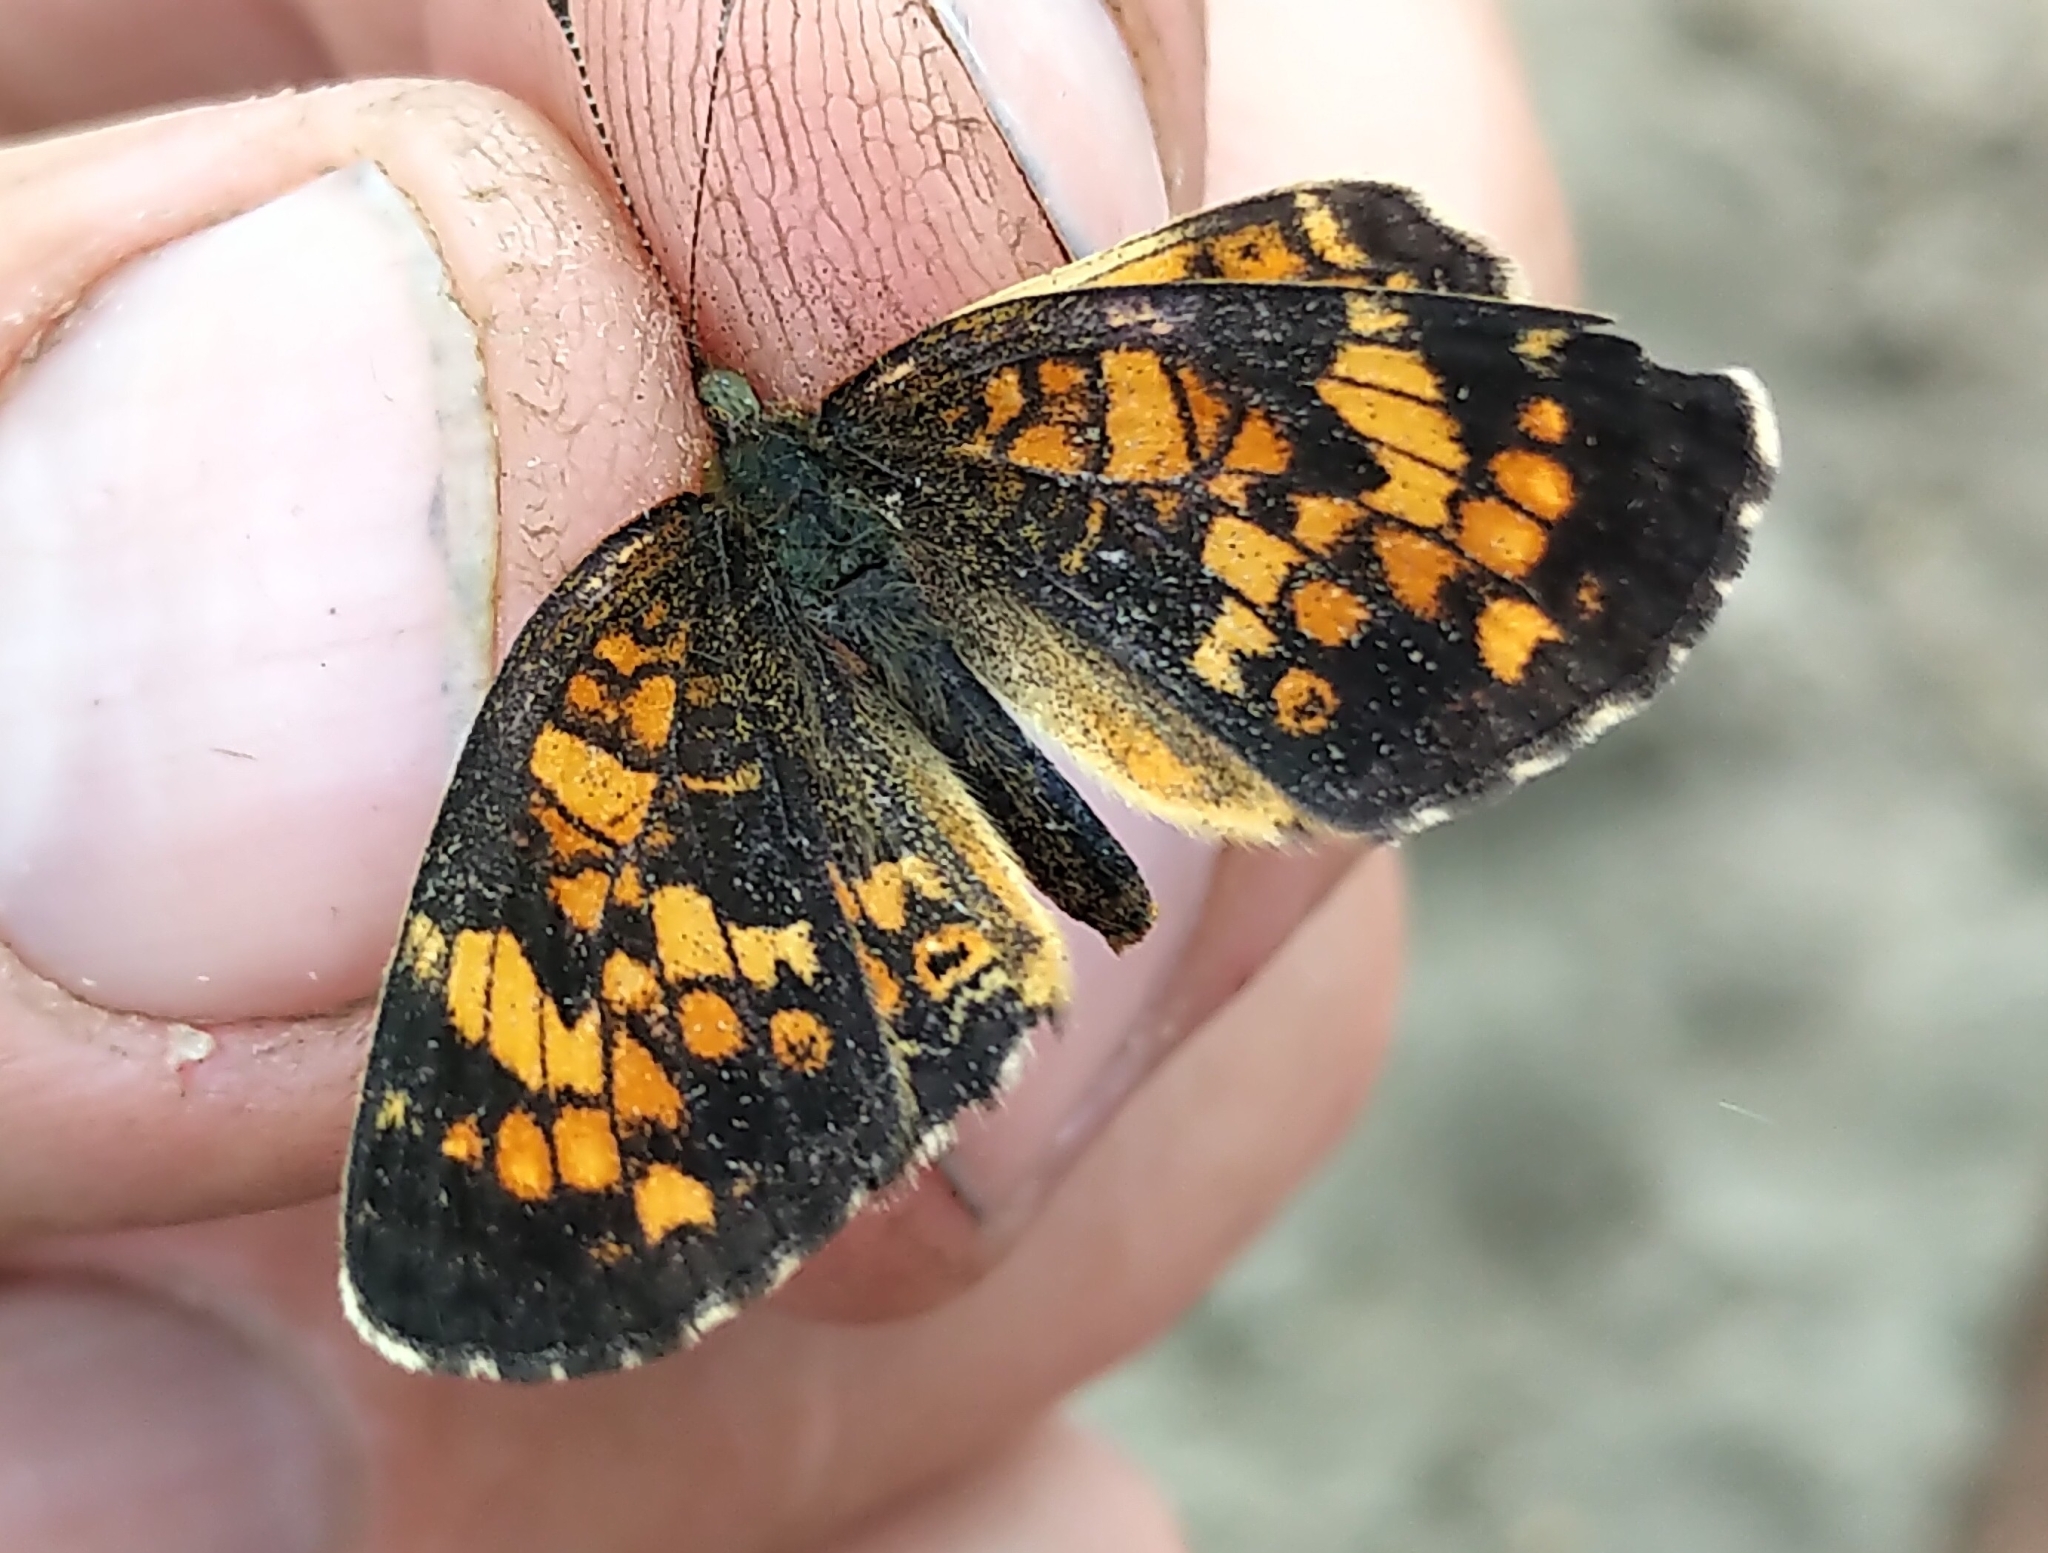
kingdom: Animalia
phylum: Arthropoda
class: Insecta
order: Lepidoptera
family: Nymphalidae
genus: Phyciodes
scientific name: Phyciodes batesii
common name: Tawny crescent
